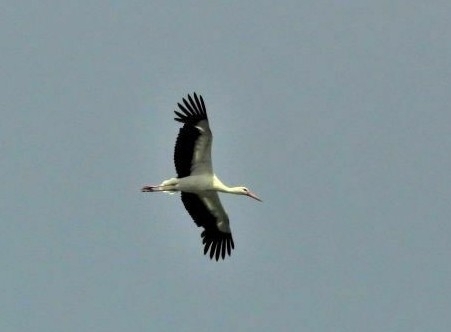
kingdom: Animalia
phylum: Chordata
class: Aves
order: Ciconiiformes
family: Ciconiidae
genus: Ciconia
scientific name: Ciconia ciconia
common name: White stork
